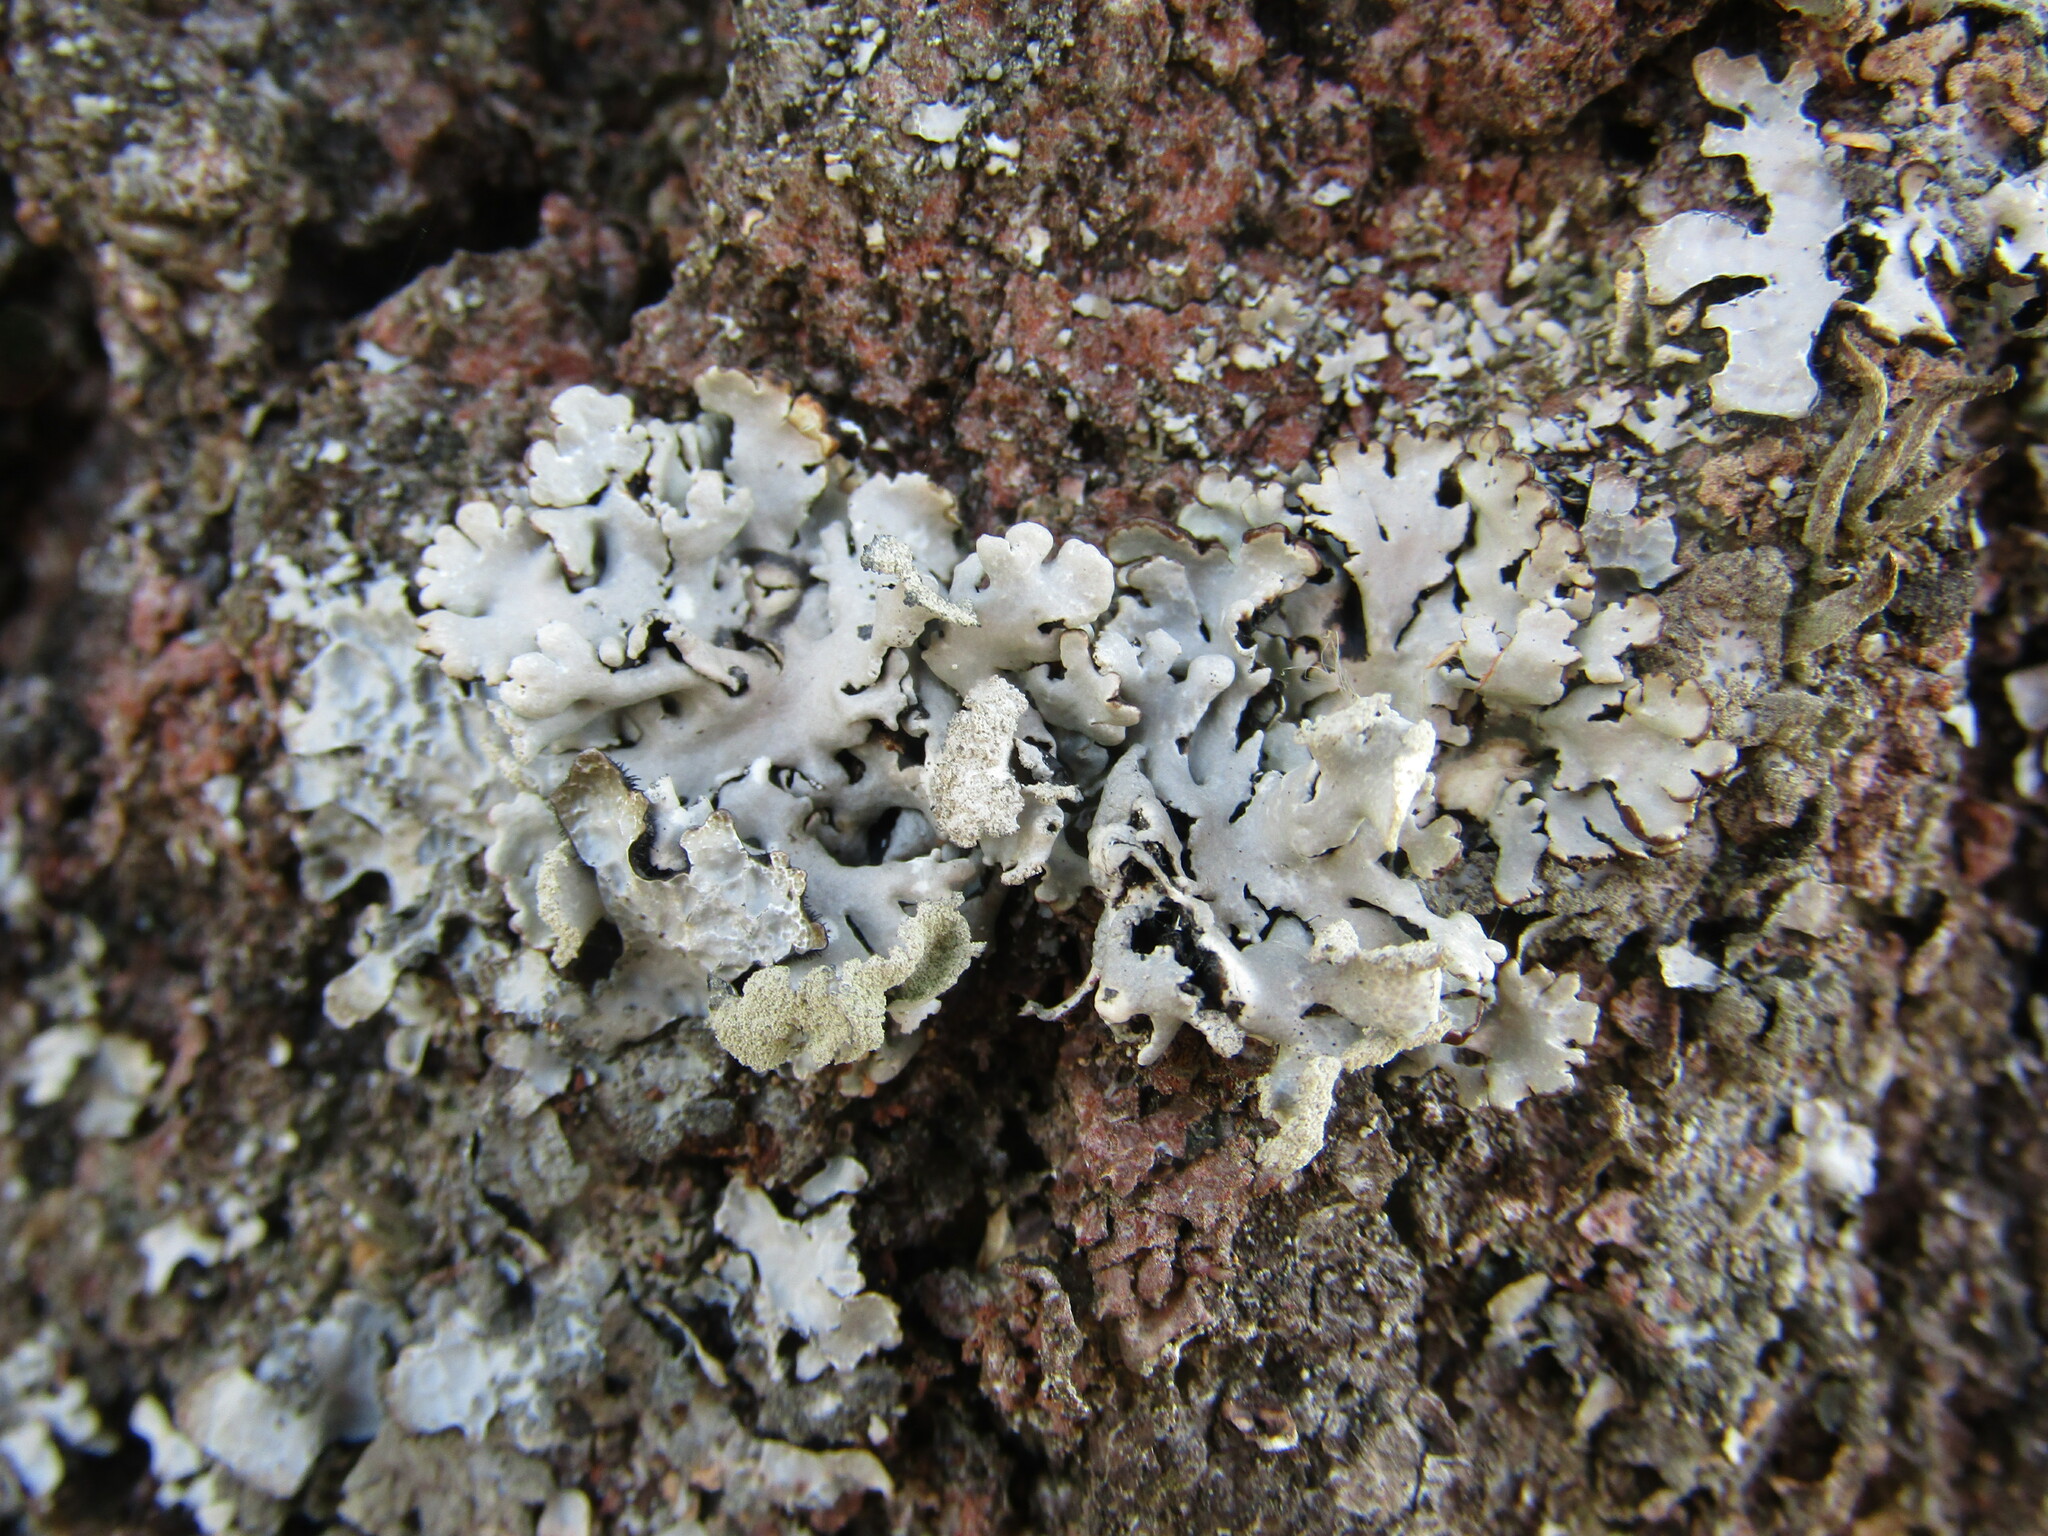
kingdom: Fungi
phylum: Ascomycota
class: Lecanoromycetes
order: Lecanorales
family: Parmeliaceae
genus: Hypogymnia
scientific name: Hypogymnia physodes
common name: Dark crottle
